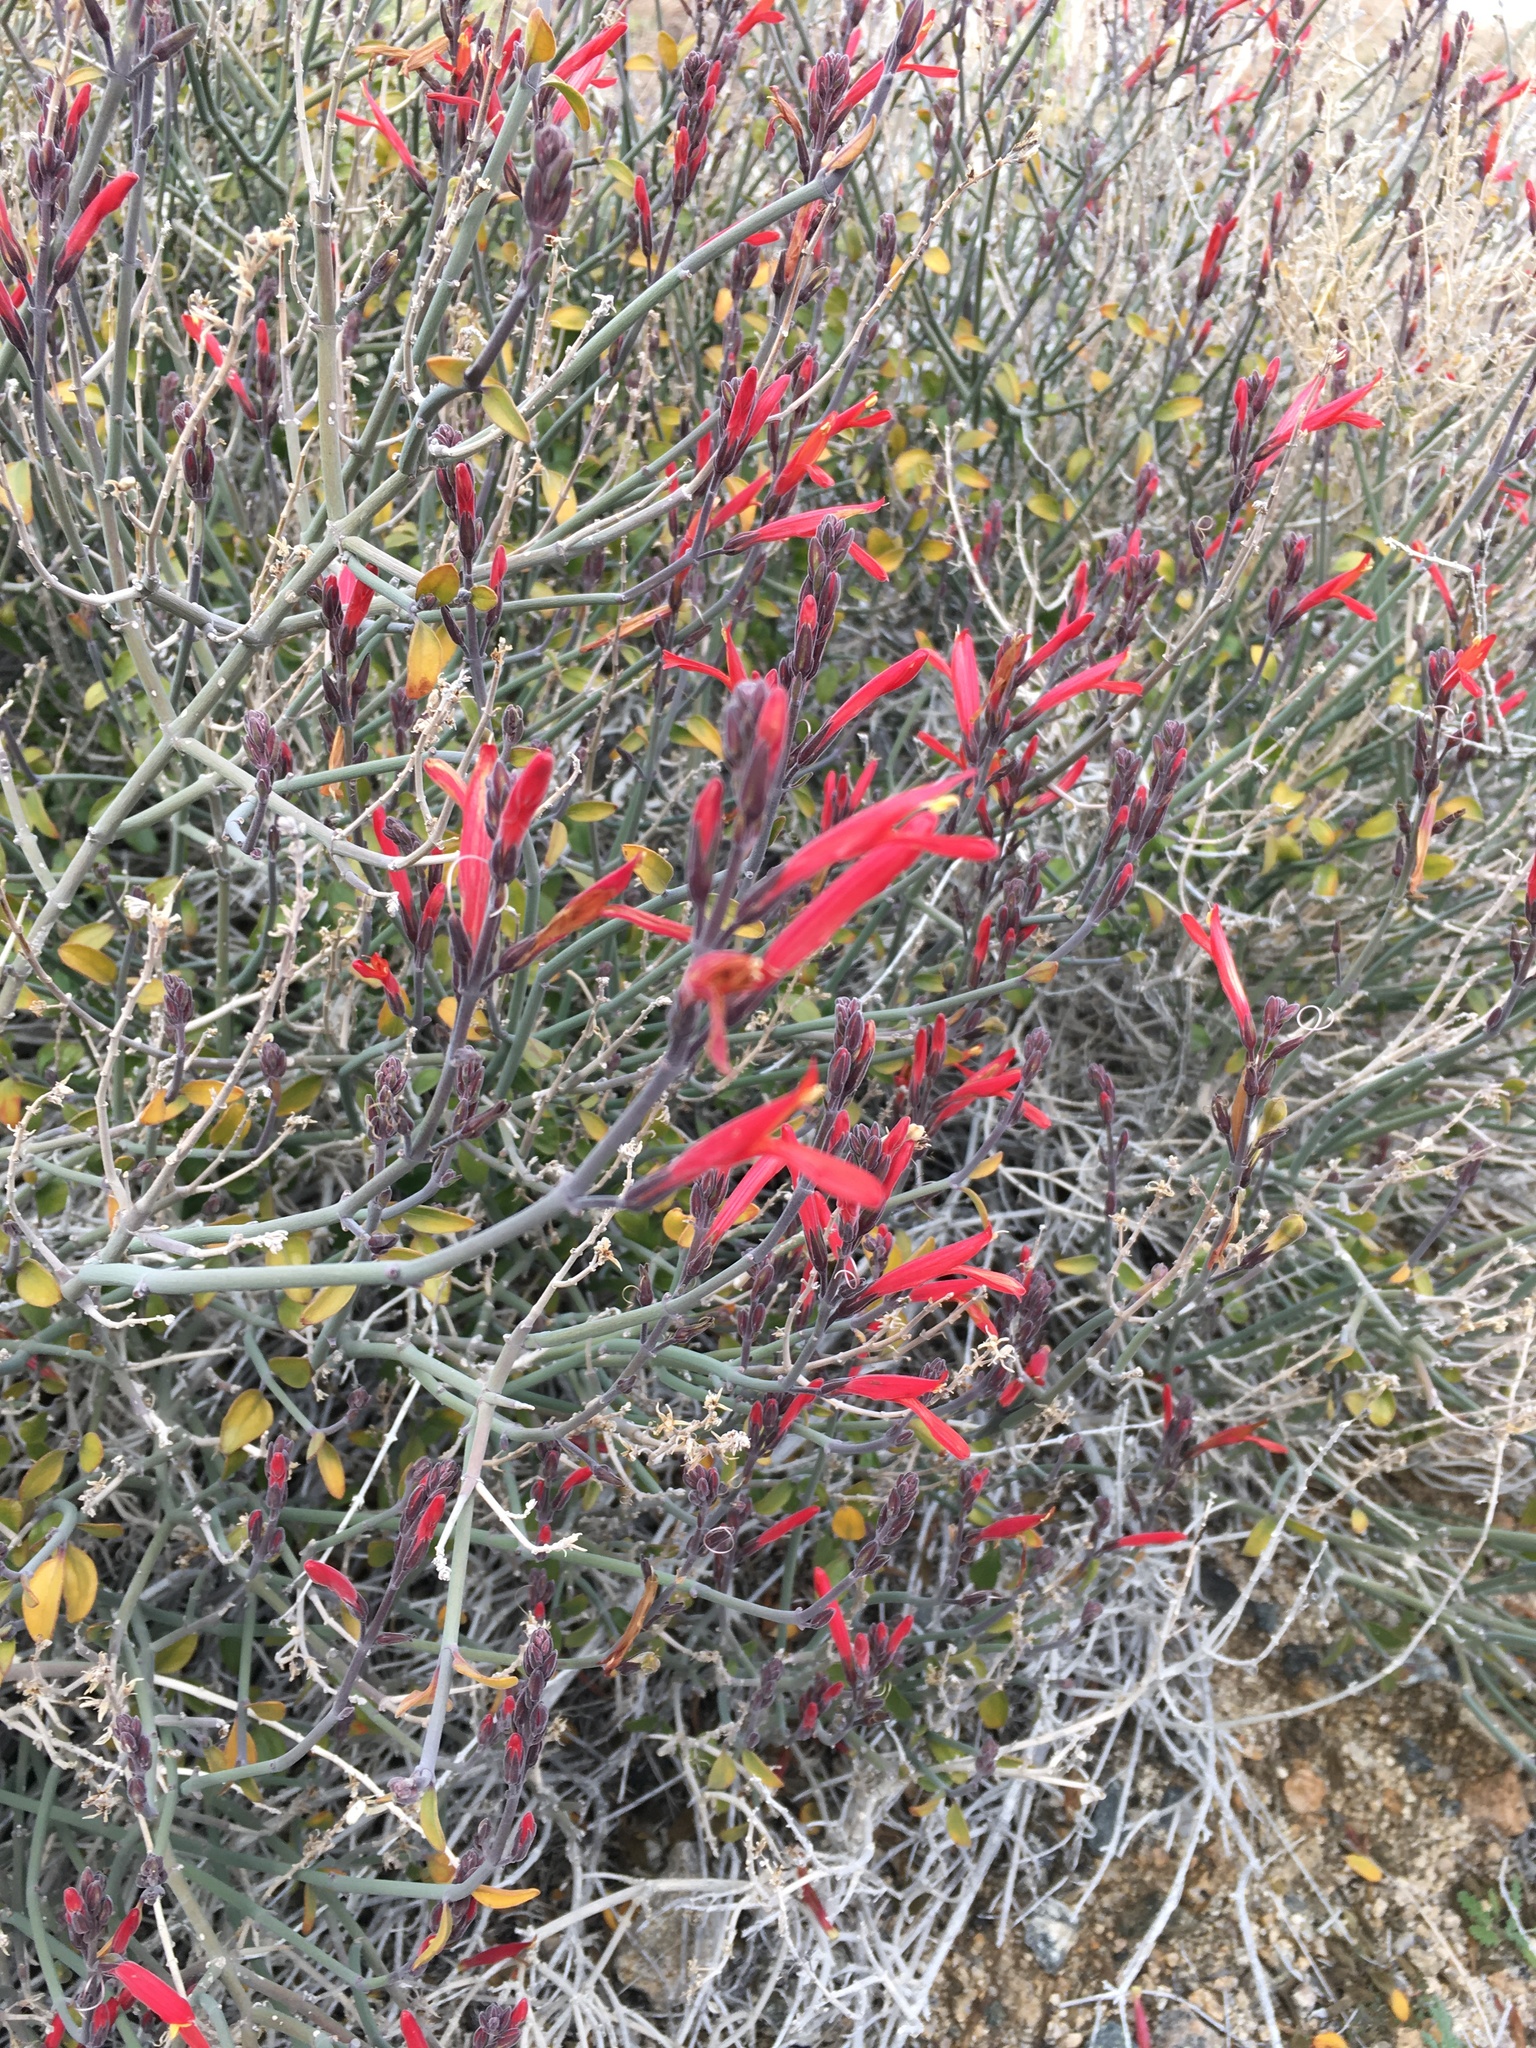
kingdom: Plantae
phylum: Tracheophyta
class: Magnoliopsida
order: Lamiales
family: Acanthaceae
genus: Justicia
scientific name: Justicia californica
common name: Chuparosa-honeysuckle
